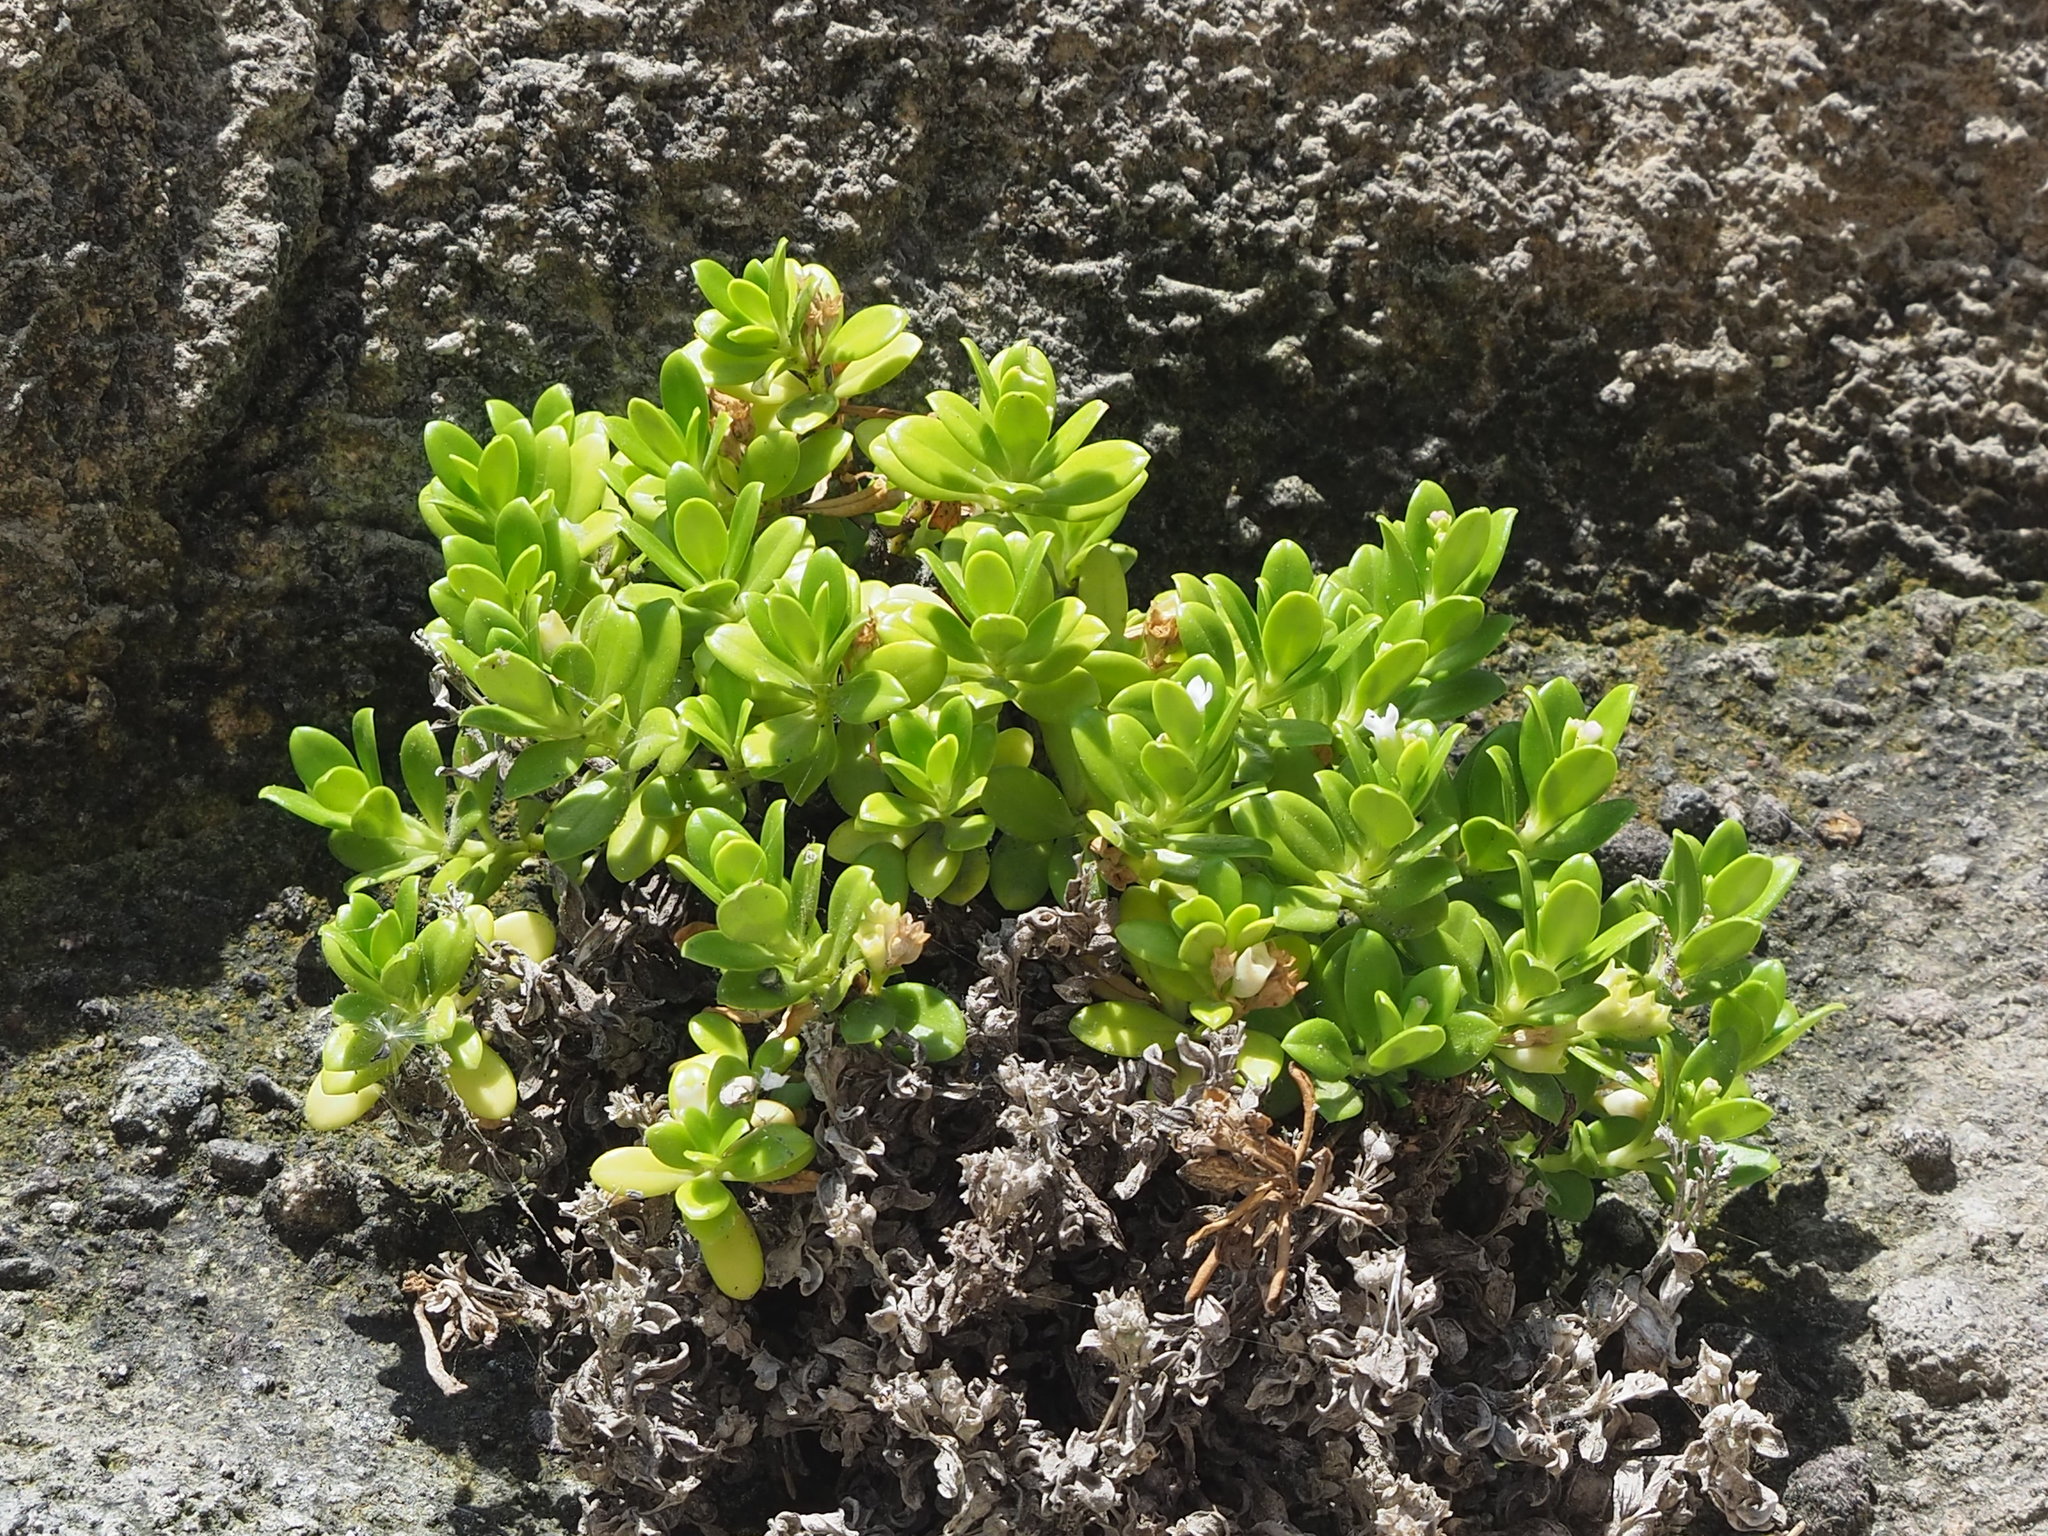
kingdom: Plantae
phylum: Tracheophyta
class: Magnoliopsida
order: Gentianales
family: Rubiaceae
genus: Leptopetalum
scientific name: Leptopetalum strigulosum
